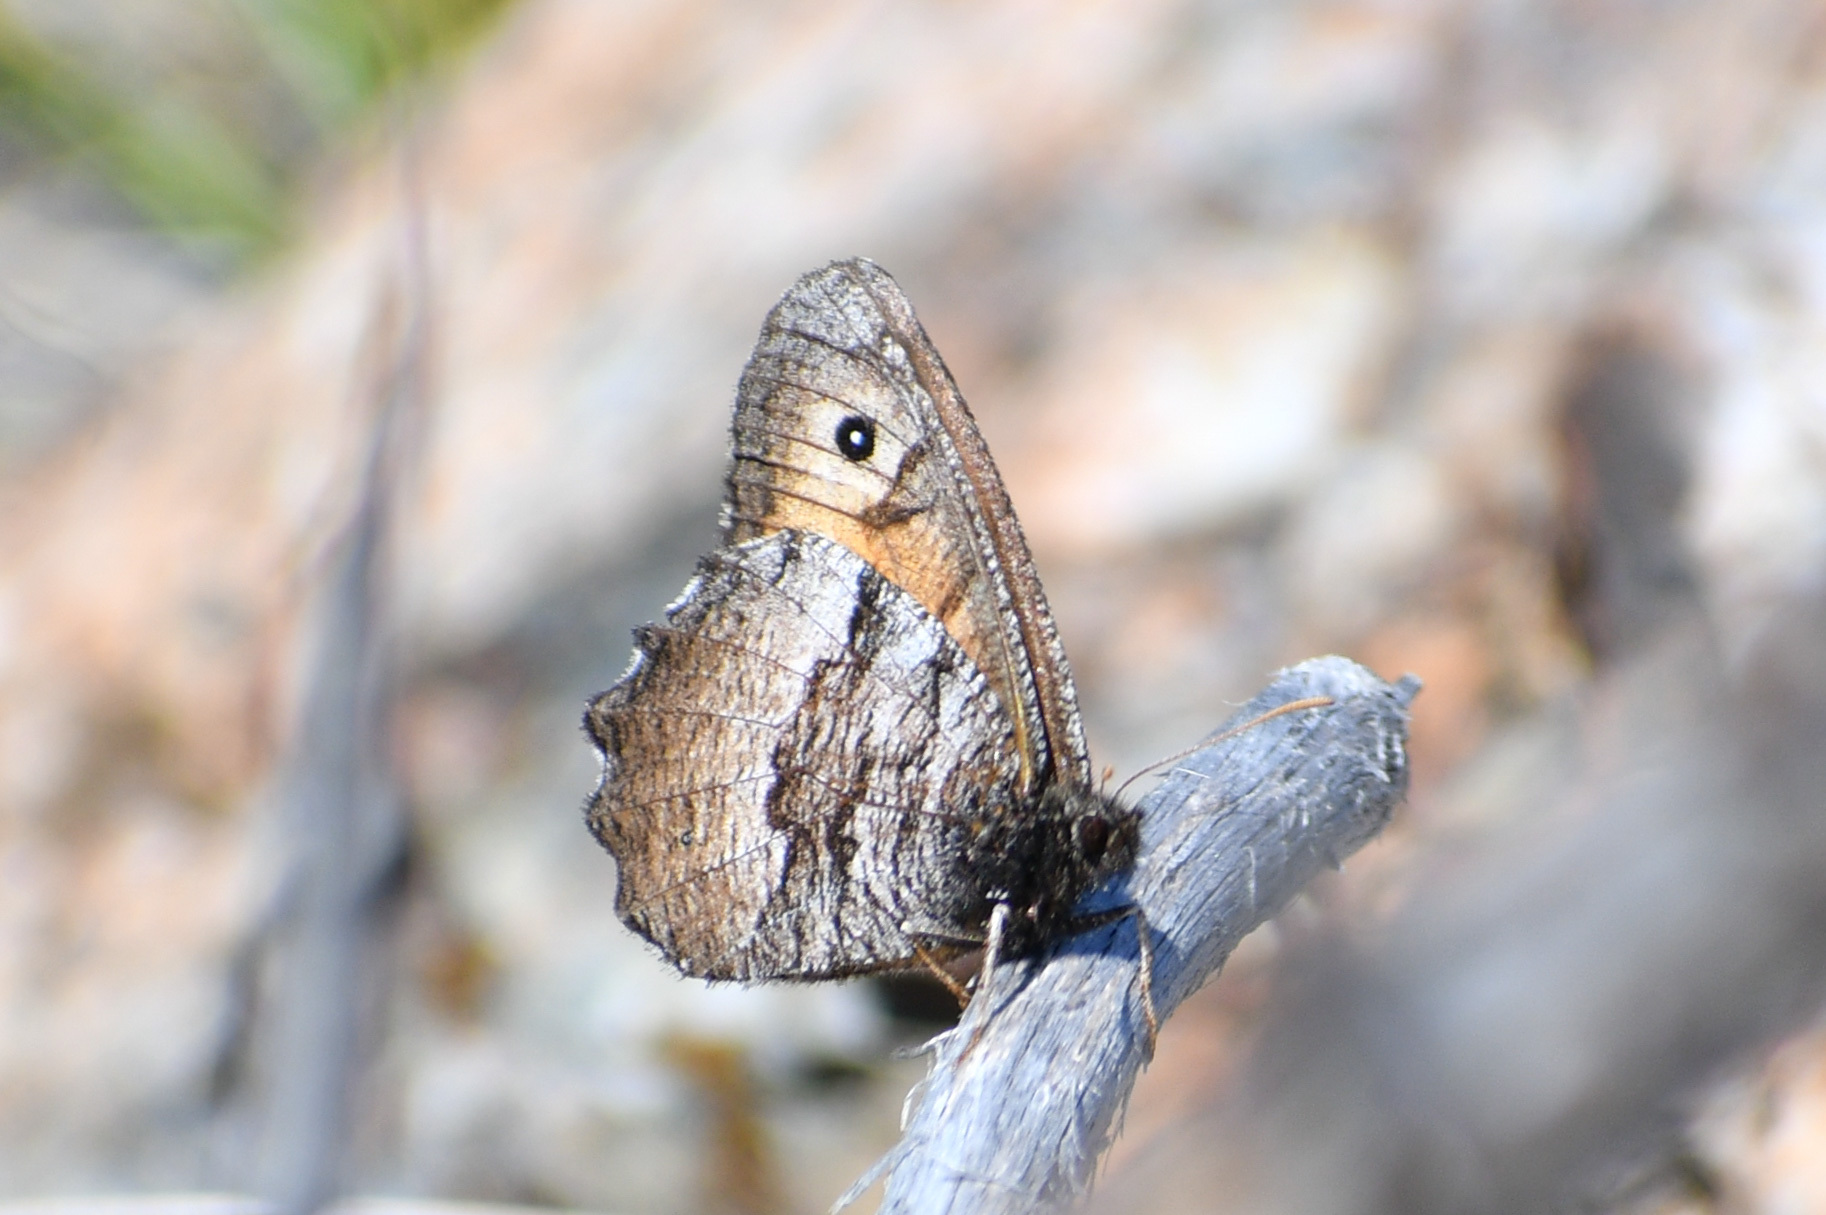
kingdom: Animalia
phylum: Arthropoda
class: Insecta
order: Lepidoptera
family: Nymphalidae
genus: Oeneis
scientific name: Oeneis macounii
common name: Macoun's arctic
